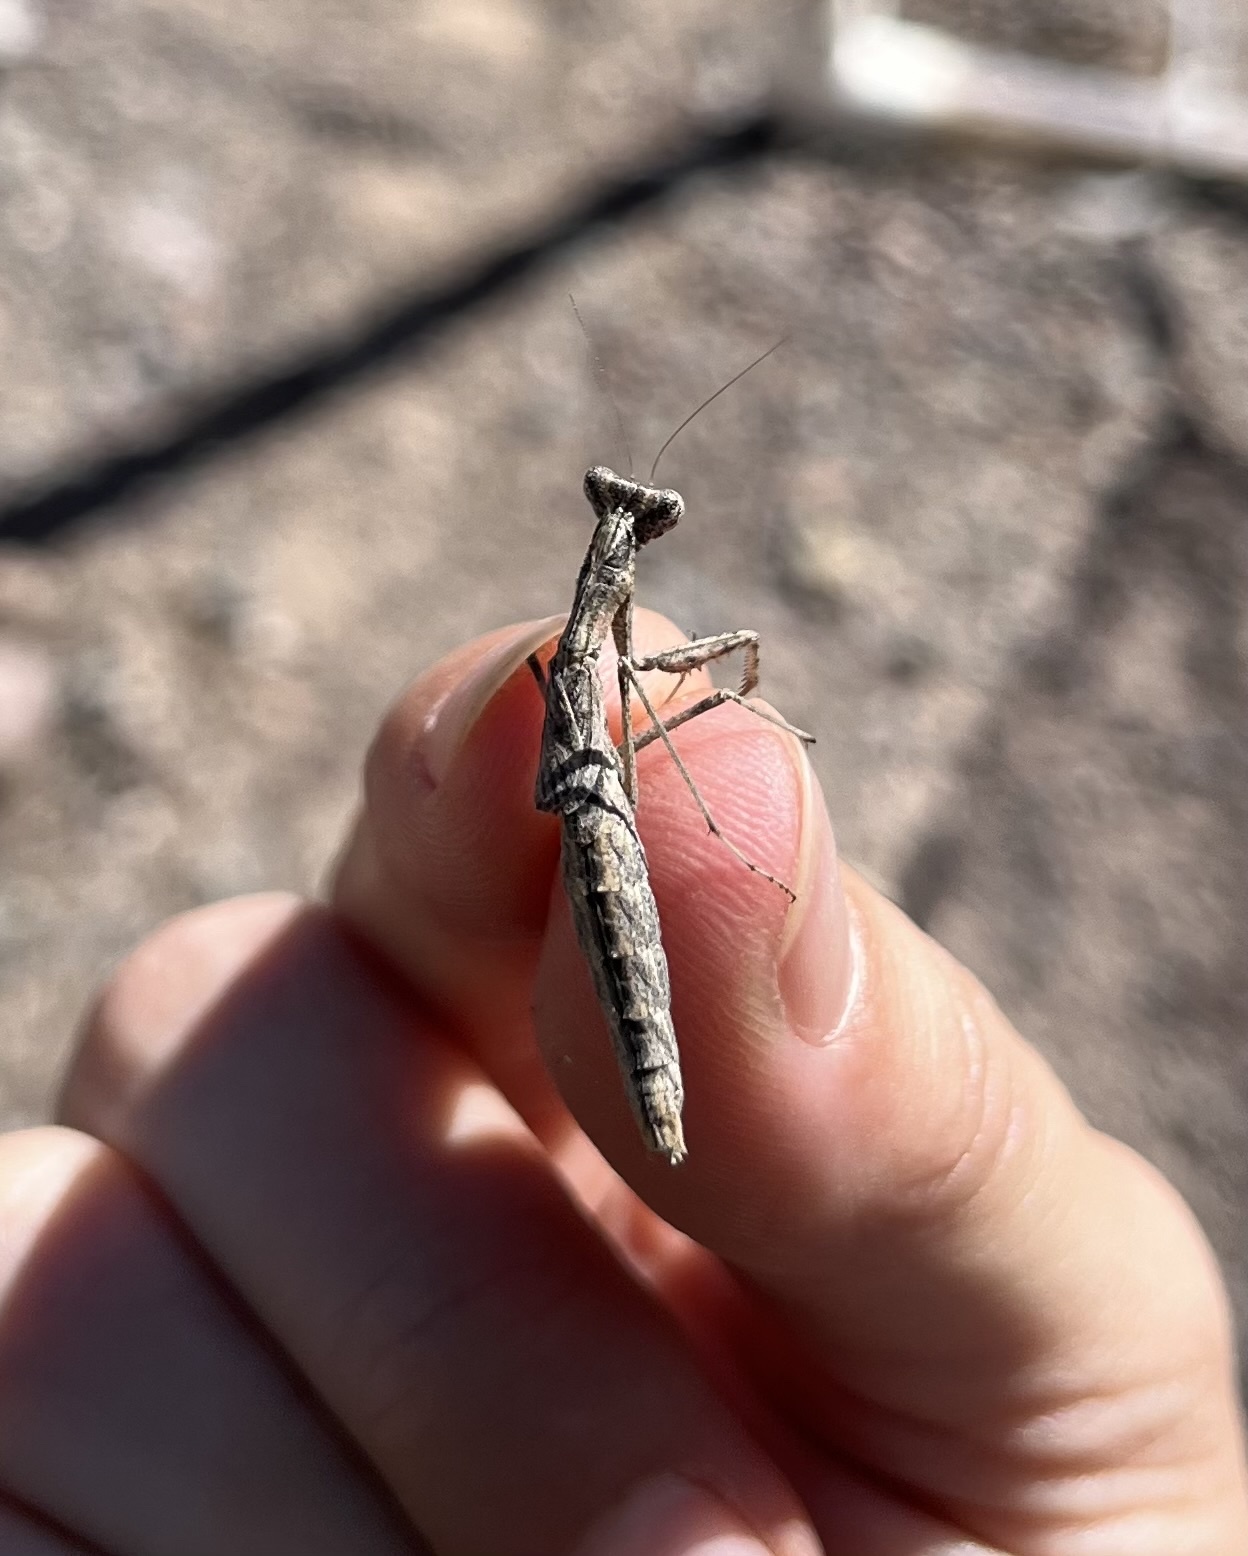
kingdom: Animalia
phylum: Arthropoda
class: Insecta
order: Mantodea
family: Amelidae
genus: Litaneutria
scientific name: Litaneutria ocularis
